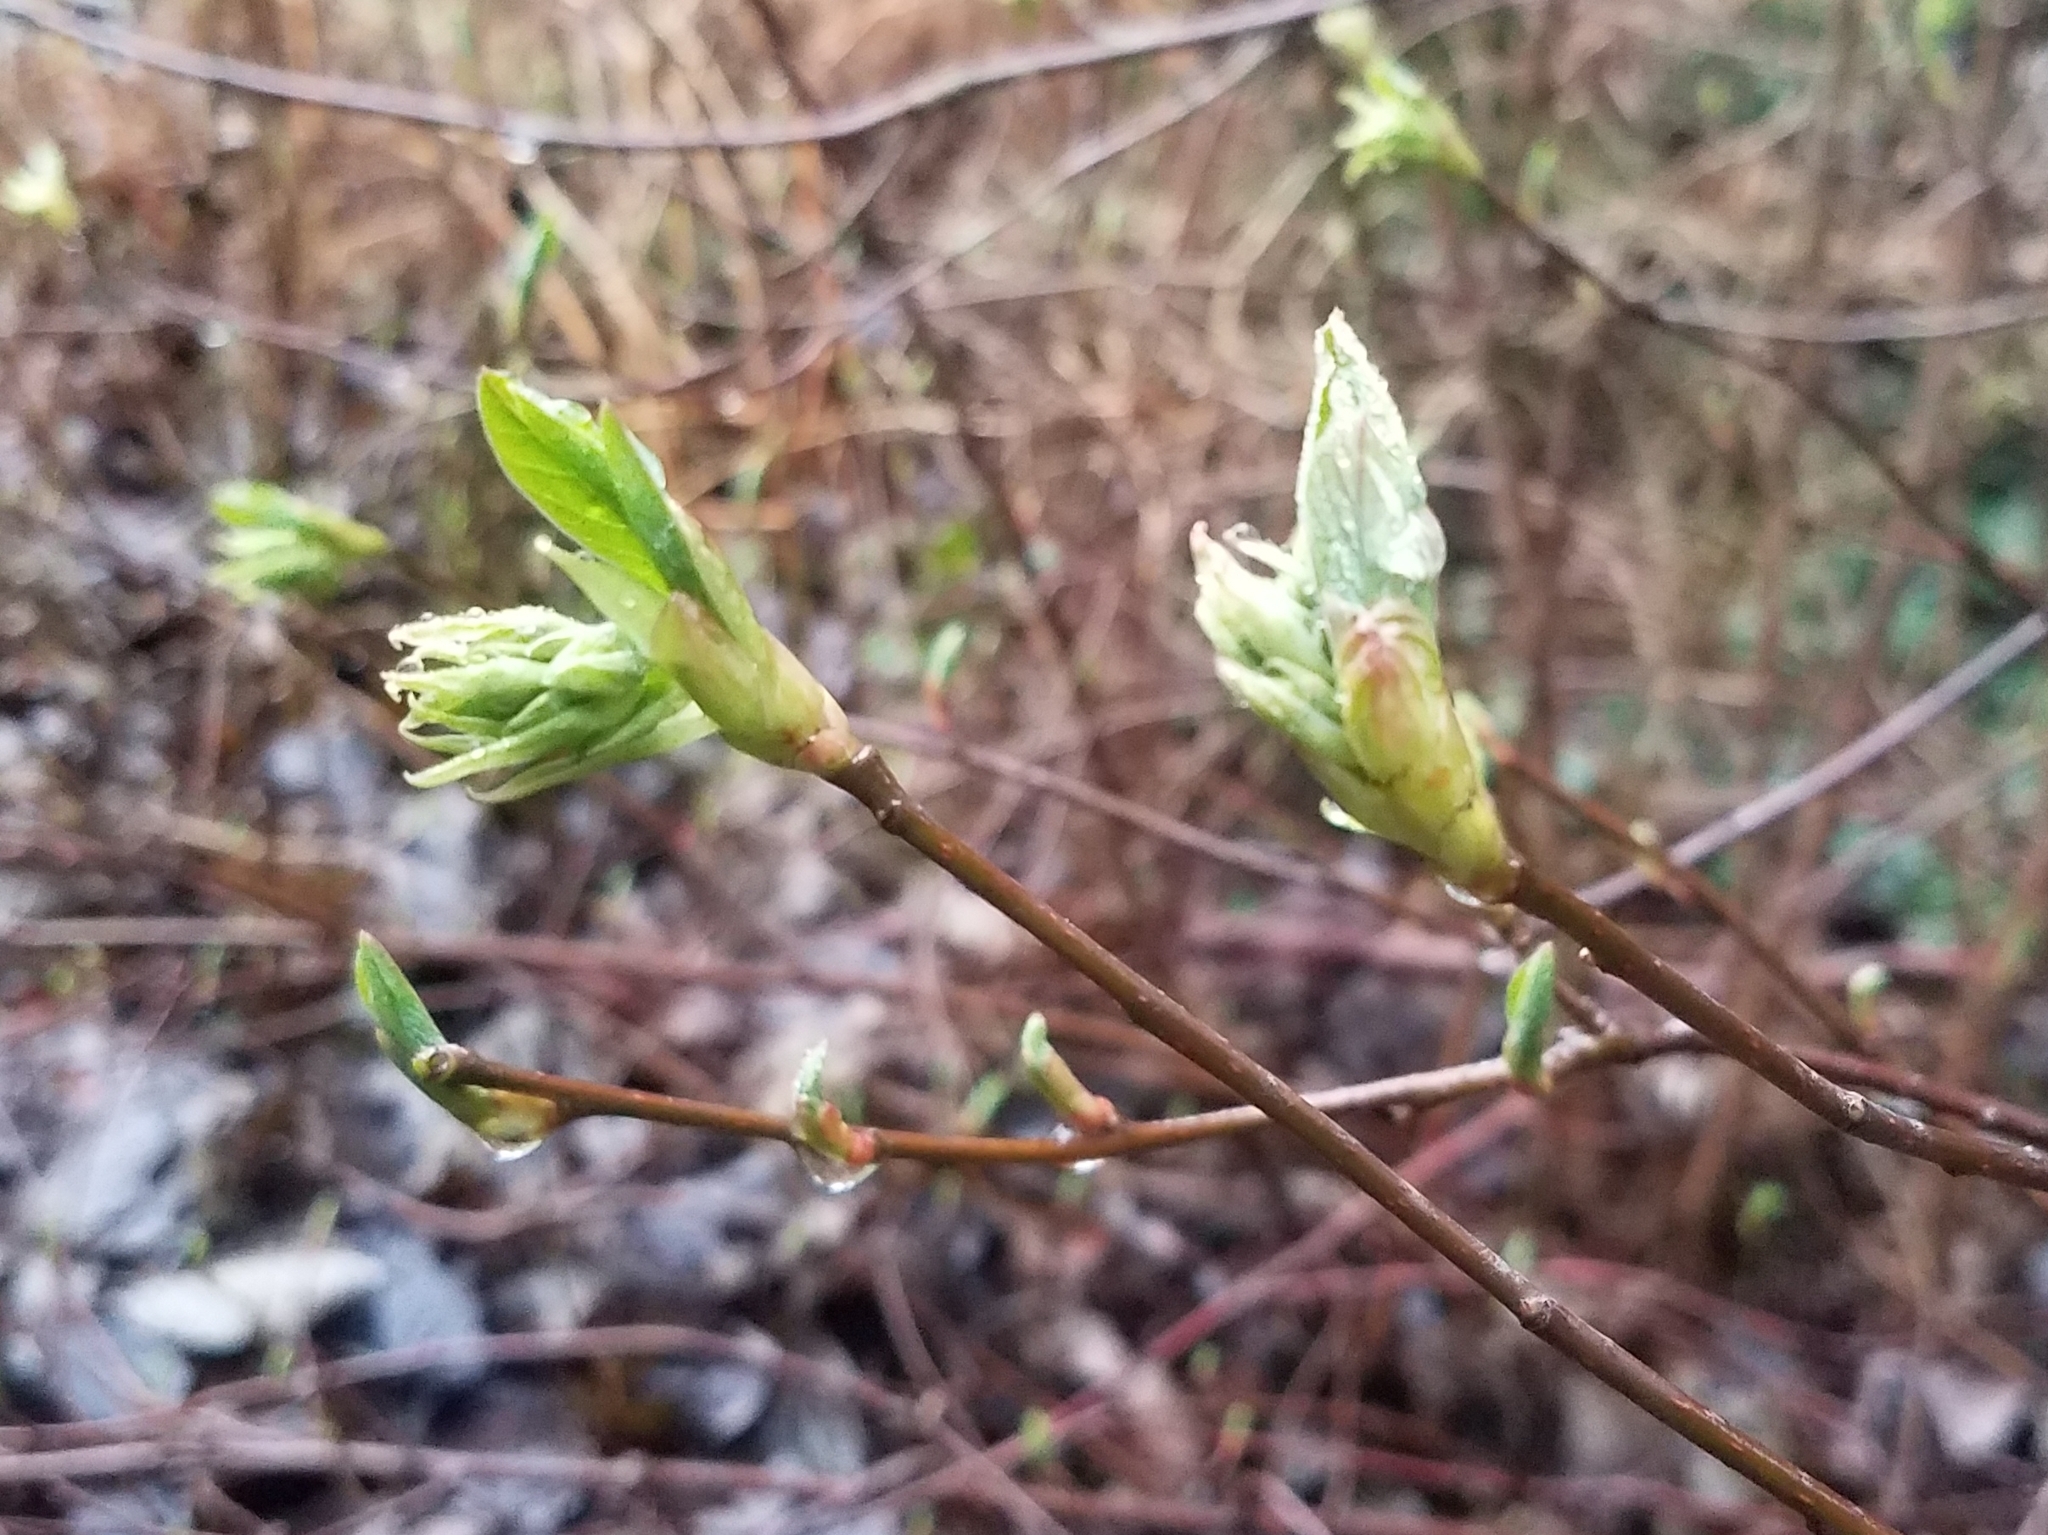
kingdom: Plantae
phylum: Tracheophyta
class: Magnoliopsida
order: Rosales
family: Rosaceae
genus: Oemleria
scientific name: Oemleria cerasiformis
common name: Osoberry
